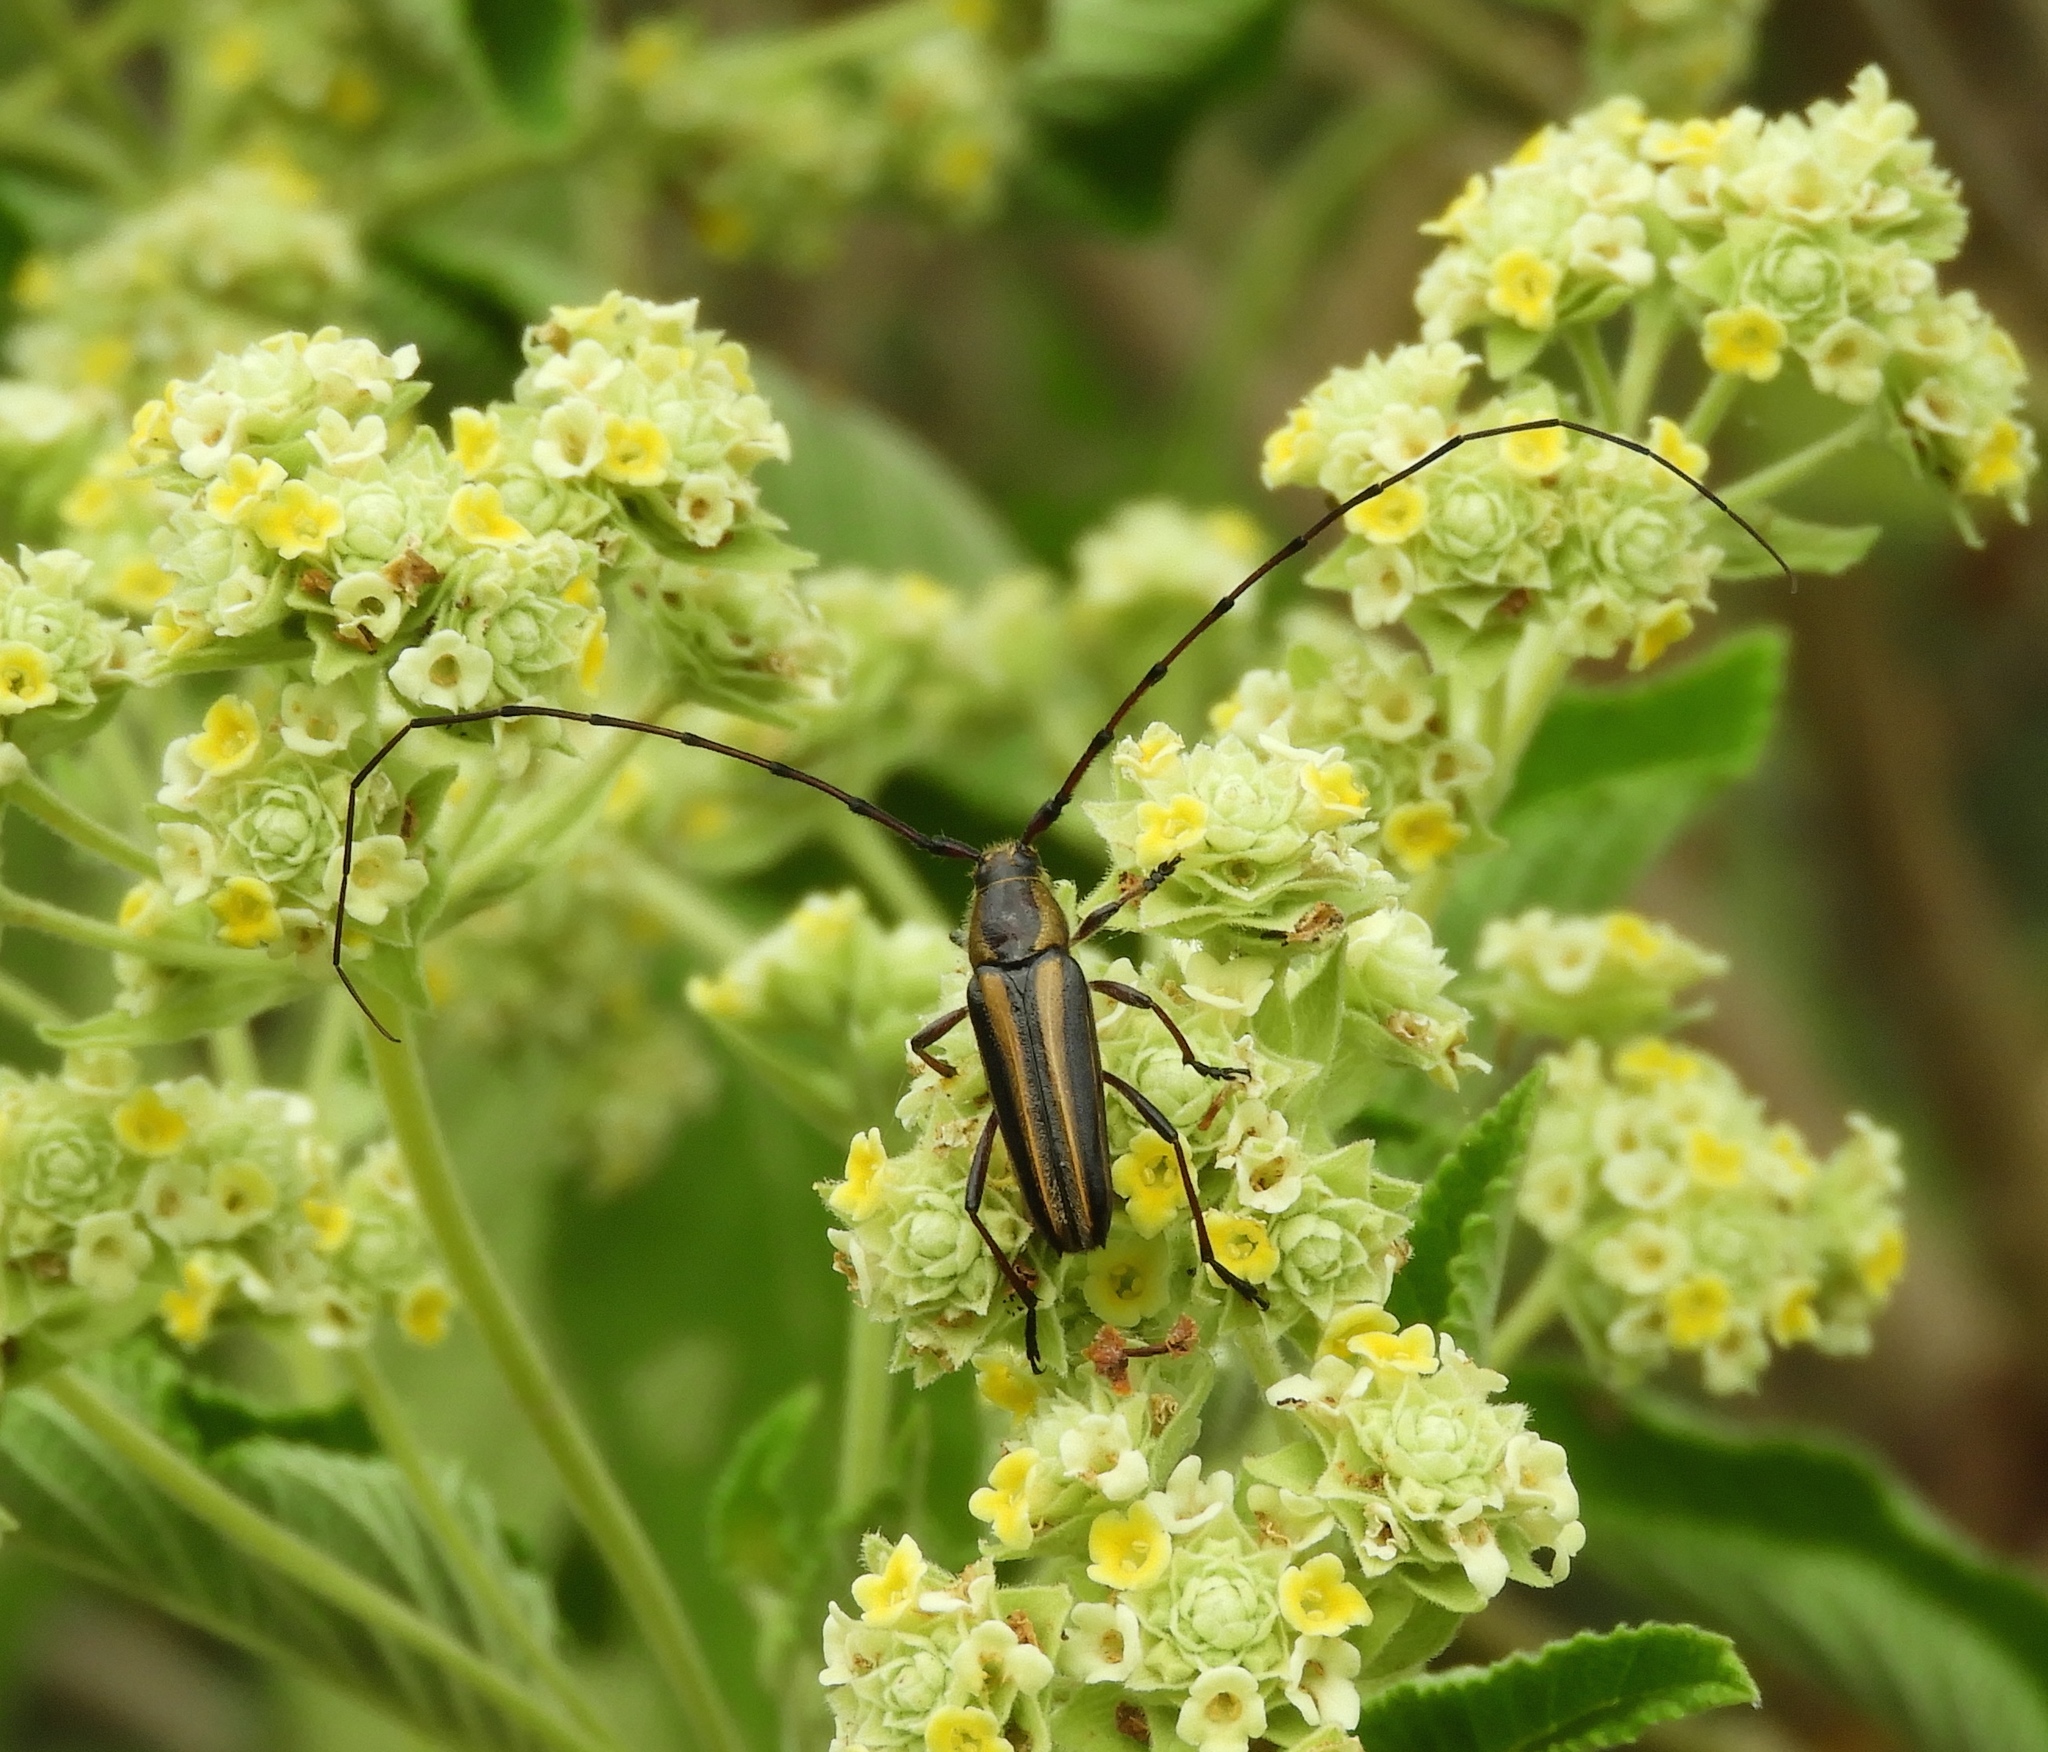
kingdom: Animalia
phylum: Arthropoda
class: Insecta
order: Coleoptera
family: Cerambycidae
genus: Sphaenothecus
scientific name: Sphaenothecus bilineatus
